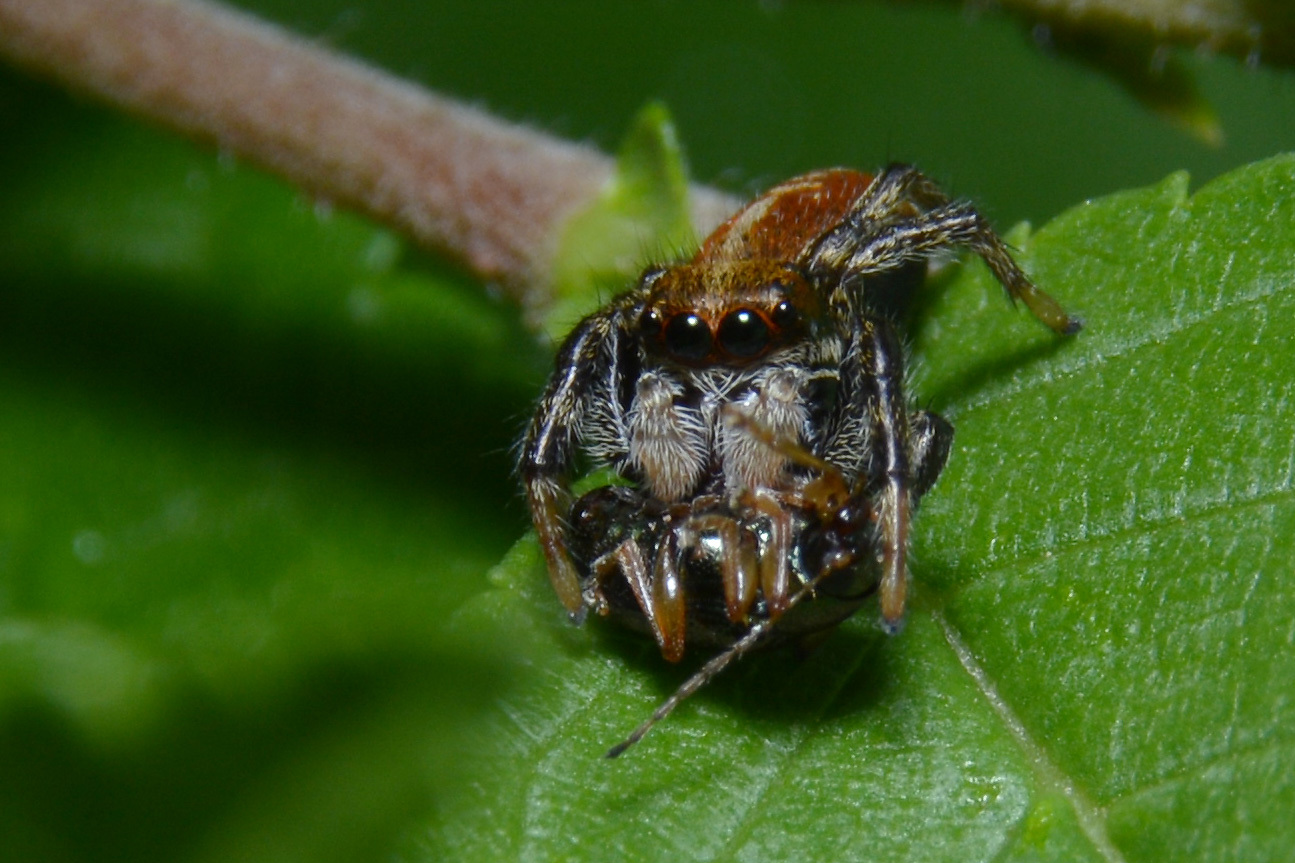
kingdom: Animalia
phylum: Arthropoda
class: Arachnida
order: Araneae
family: Salticidae
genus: Phiale
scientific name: Phiale roburifoliata
